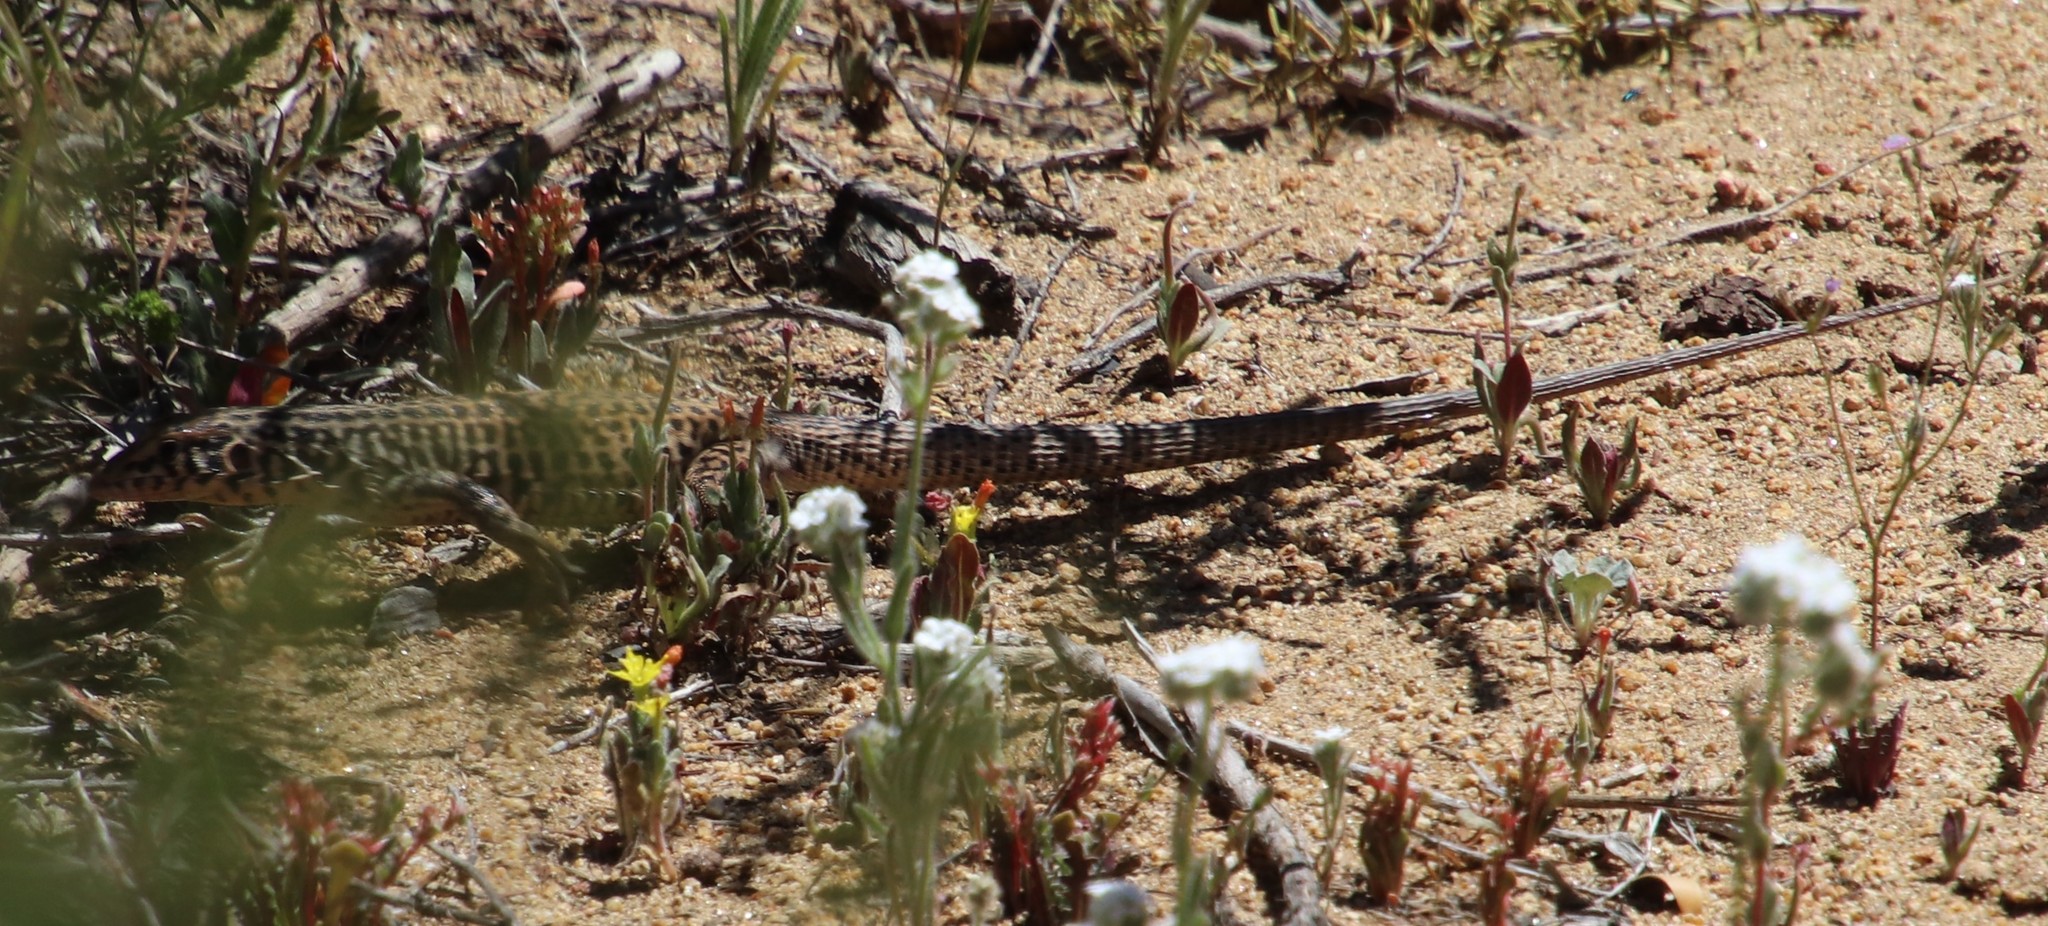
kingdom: Animalia
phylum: Chordata
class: Squamata
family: Teiidae
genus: Aspidoscelis
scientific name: Aspidoscelis tigris
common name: Tiger whiptail
